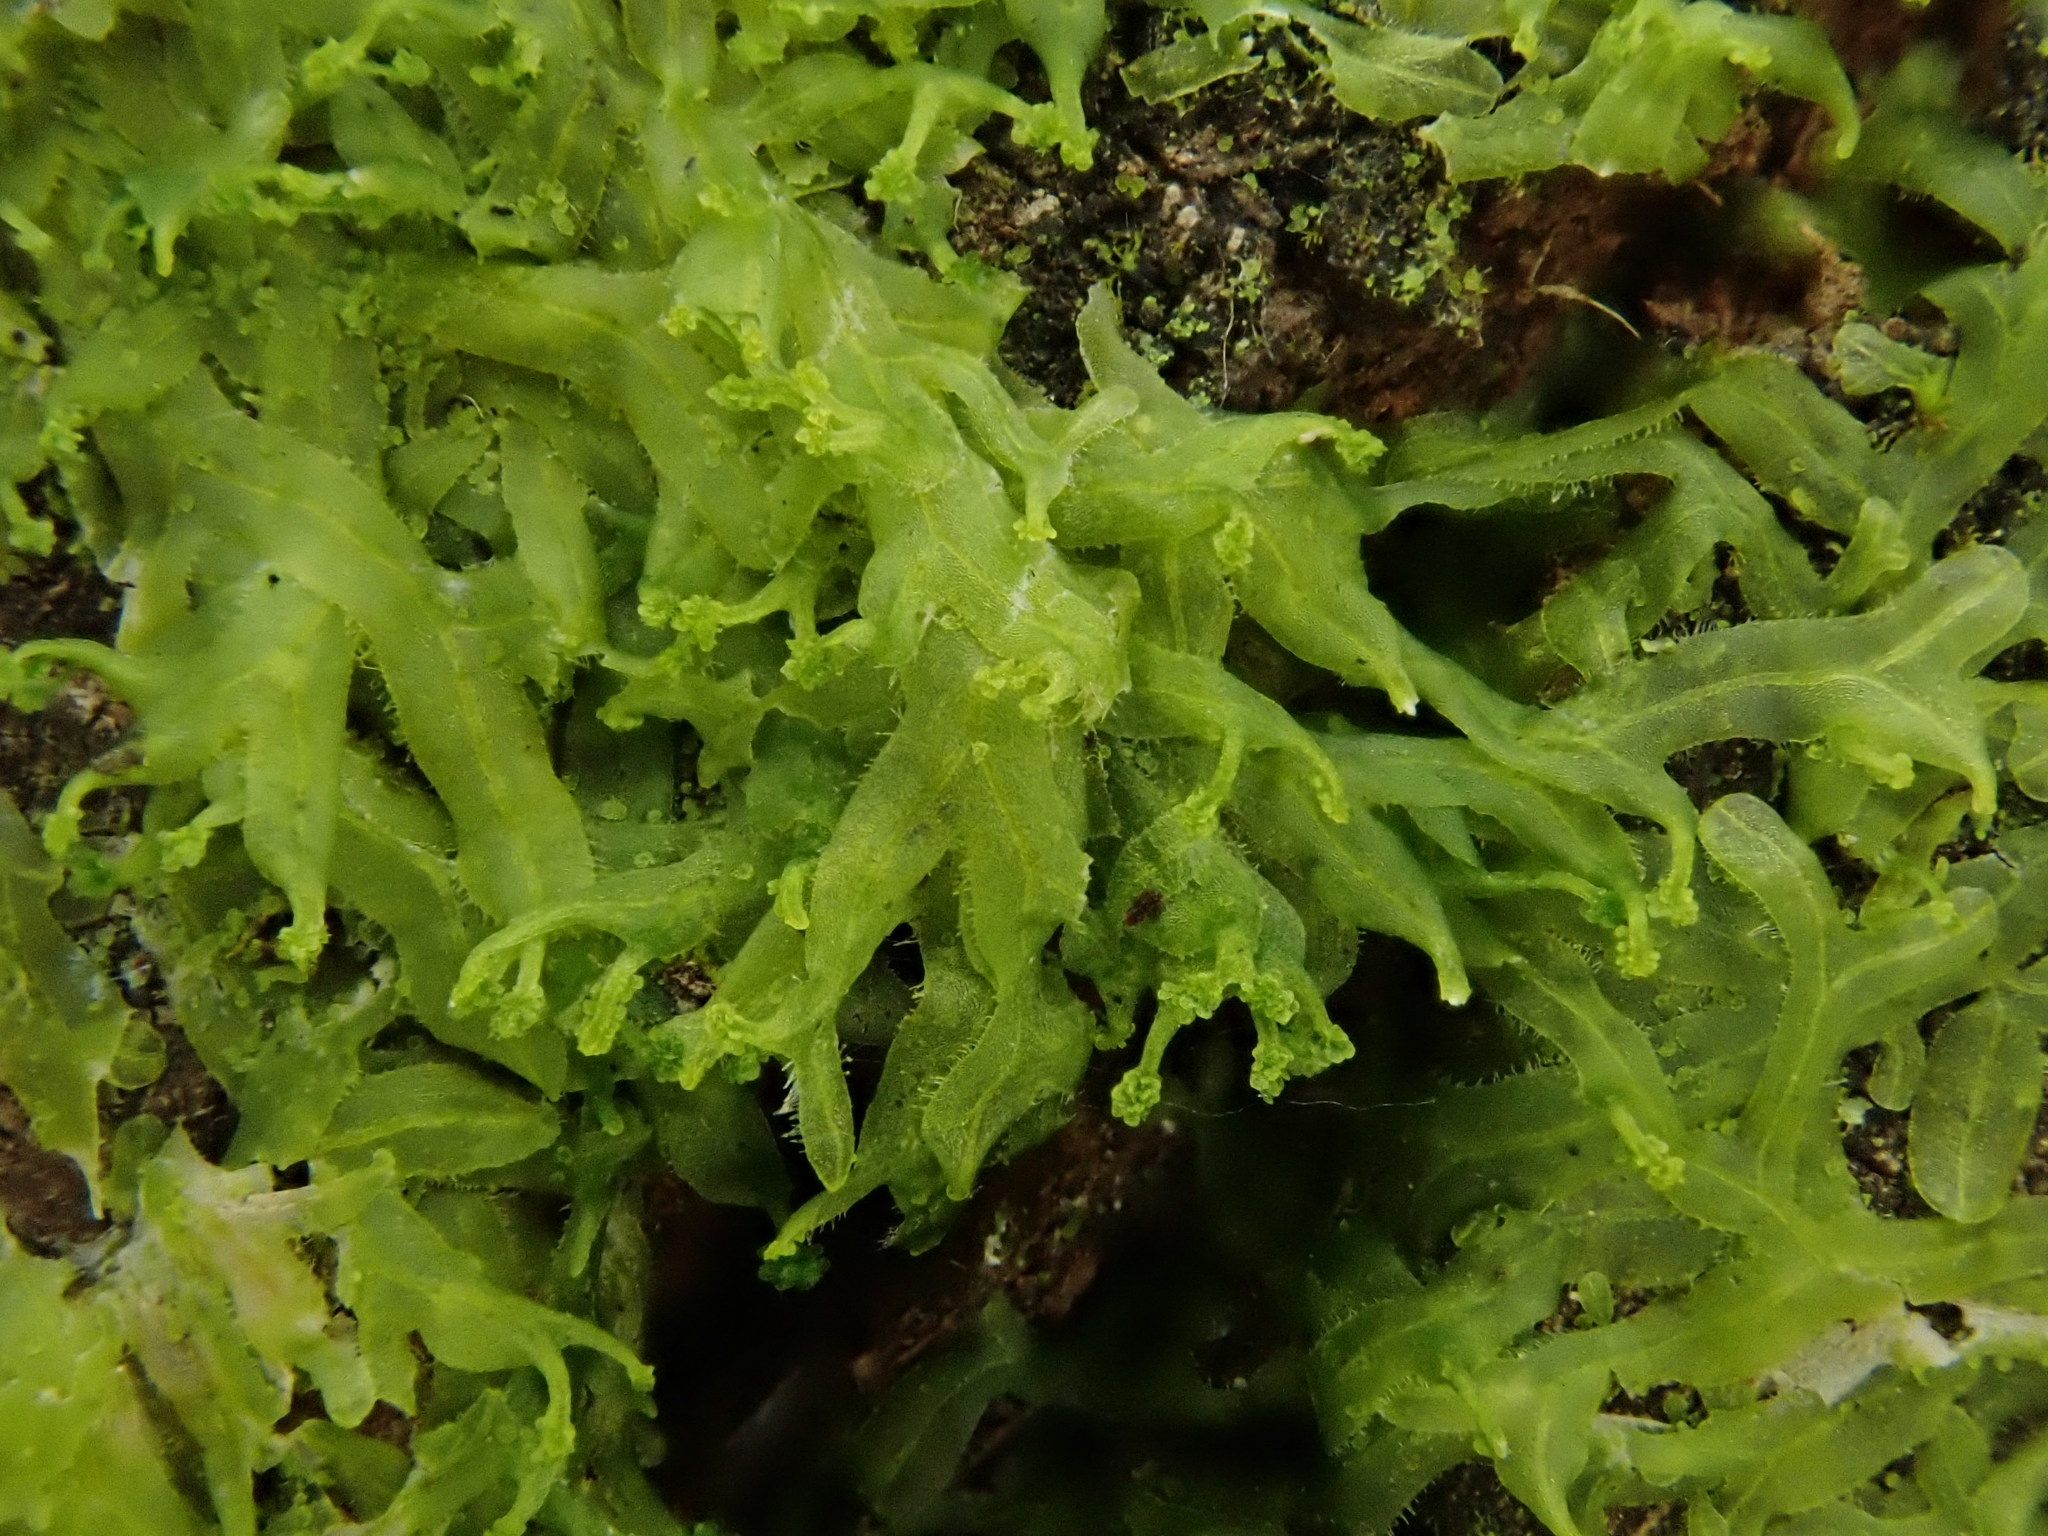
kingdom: Plantae
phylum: Marchantiophyta
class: Jungermanniopsida
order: Metzgeriales
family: Metzgeriaceae
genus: Metzgeria
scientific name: Metzgeria violacea
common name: Blueish veilwort
